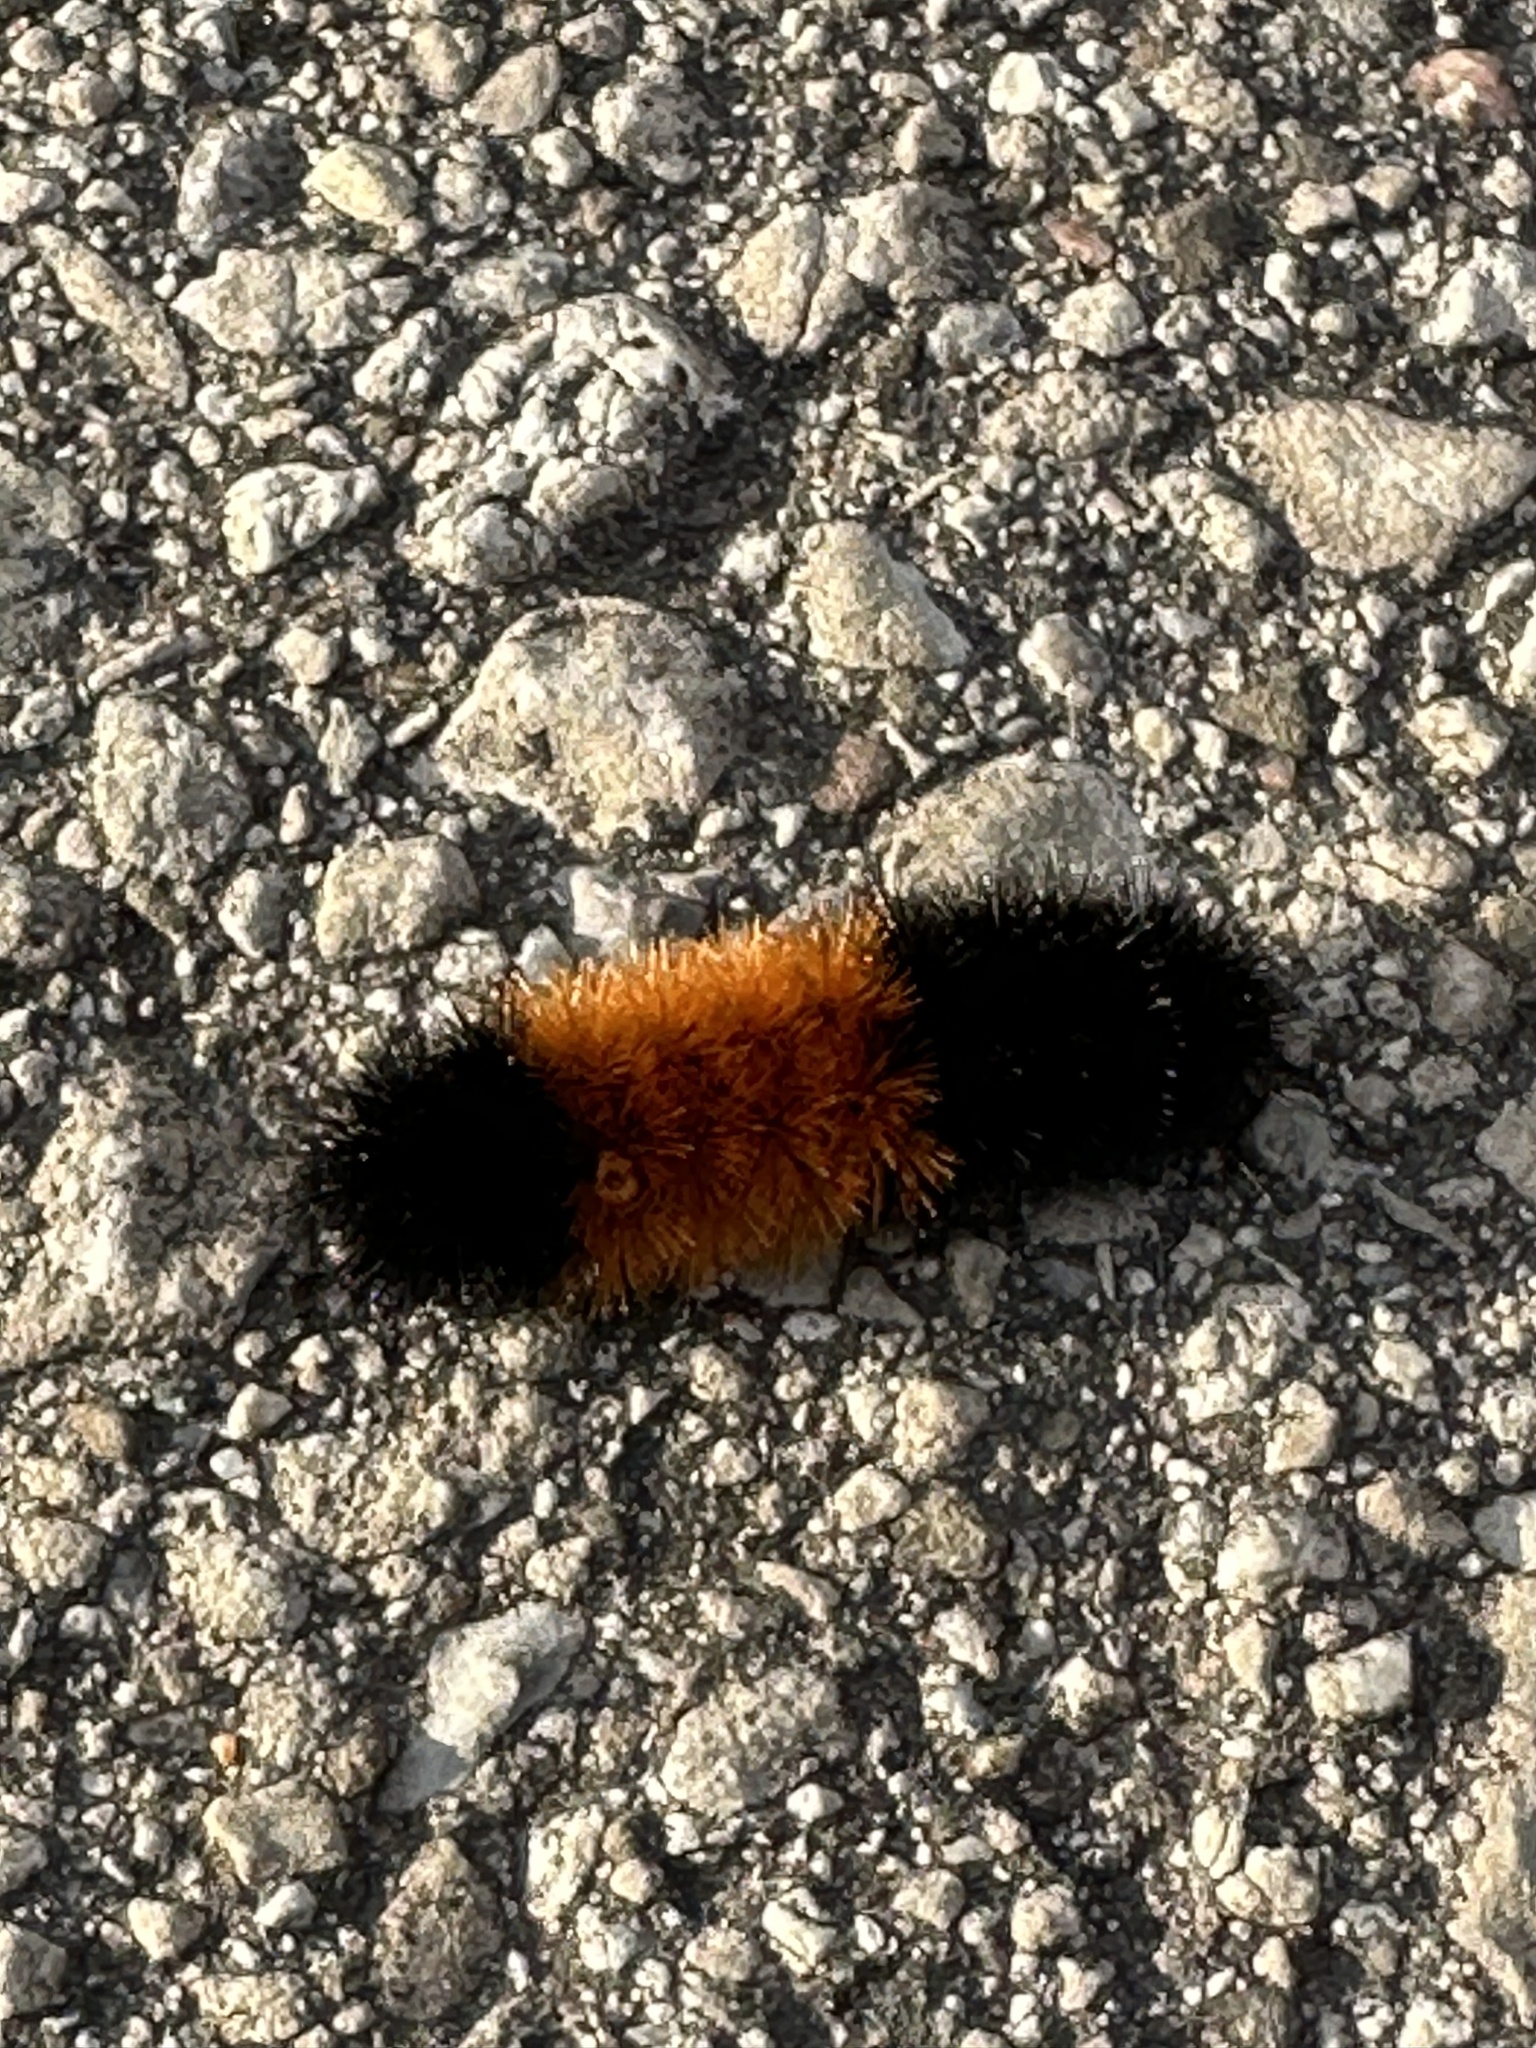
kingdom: Animalia
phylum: Arthropoda
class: Insecta
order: Lepidoptera
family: Erebidae
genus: Pyrrharctia
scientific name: Pyrrharctia isabella
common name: Isabella tiger moth
